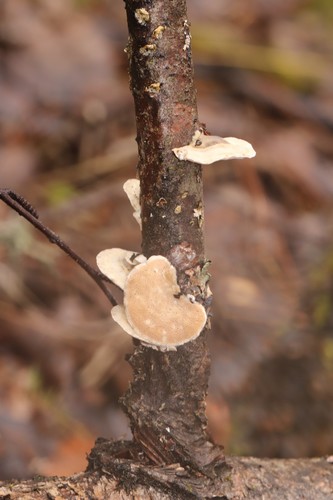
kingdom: Fungi
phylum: Basidiomycota
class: Agaricomycetes
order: Polyporales
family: Polyporaceae
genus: Trametes
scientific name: Trametes pubescens
